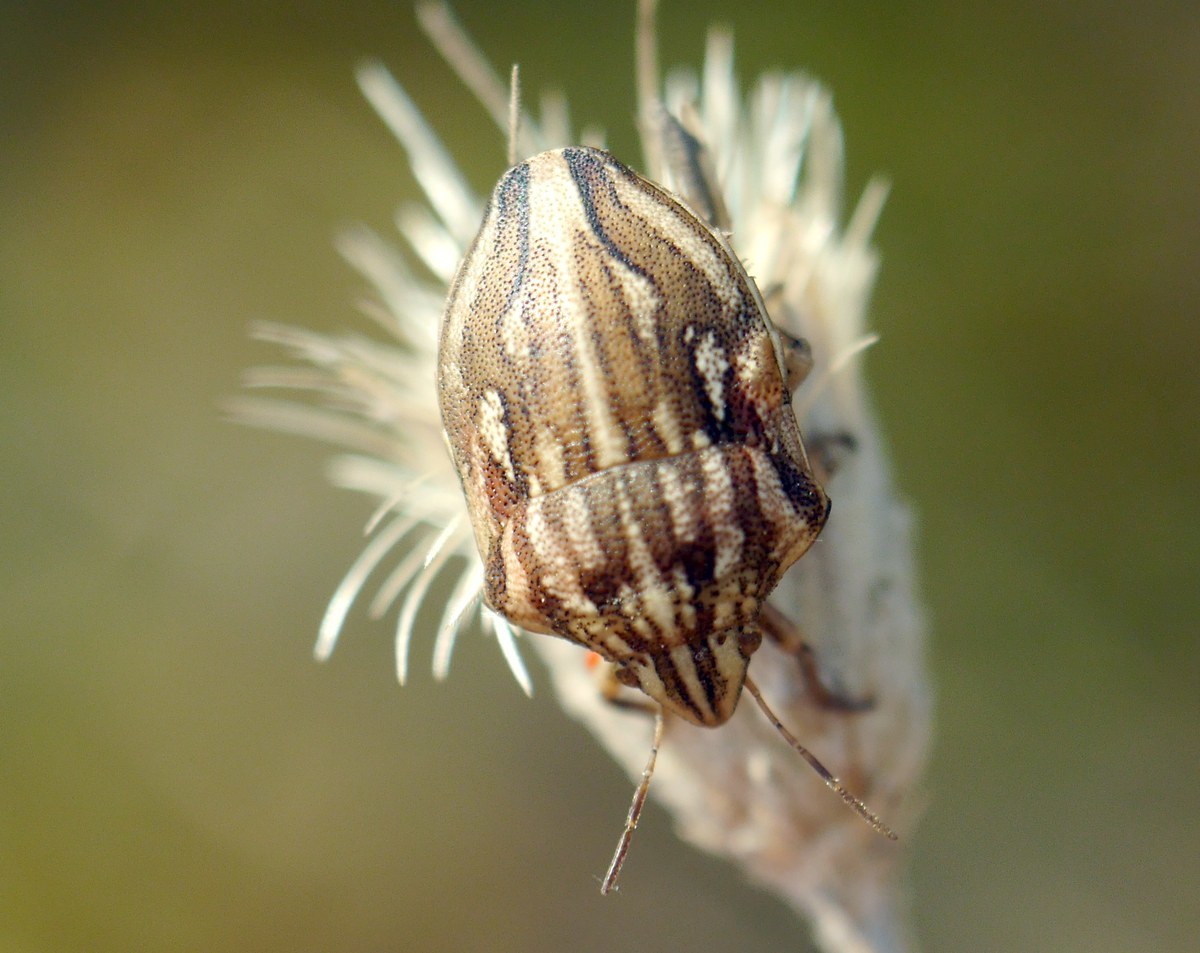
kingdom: Animalia
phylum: Arthropoda
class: Insecta
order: Hemiptera
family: Scutelleridae
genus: Odontotarsus
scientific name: Odontotarsus purpureolineatus
